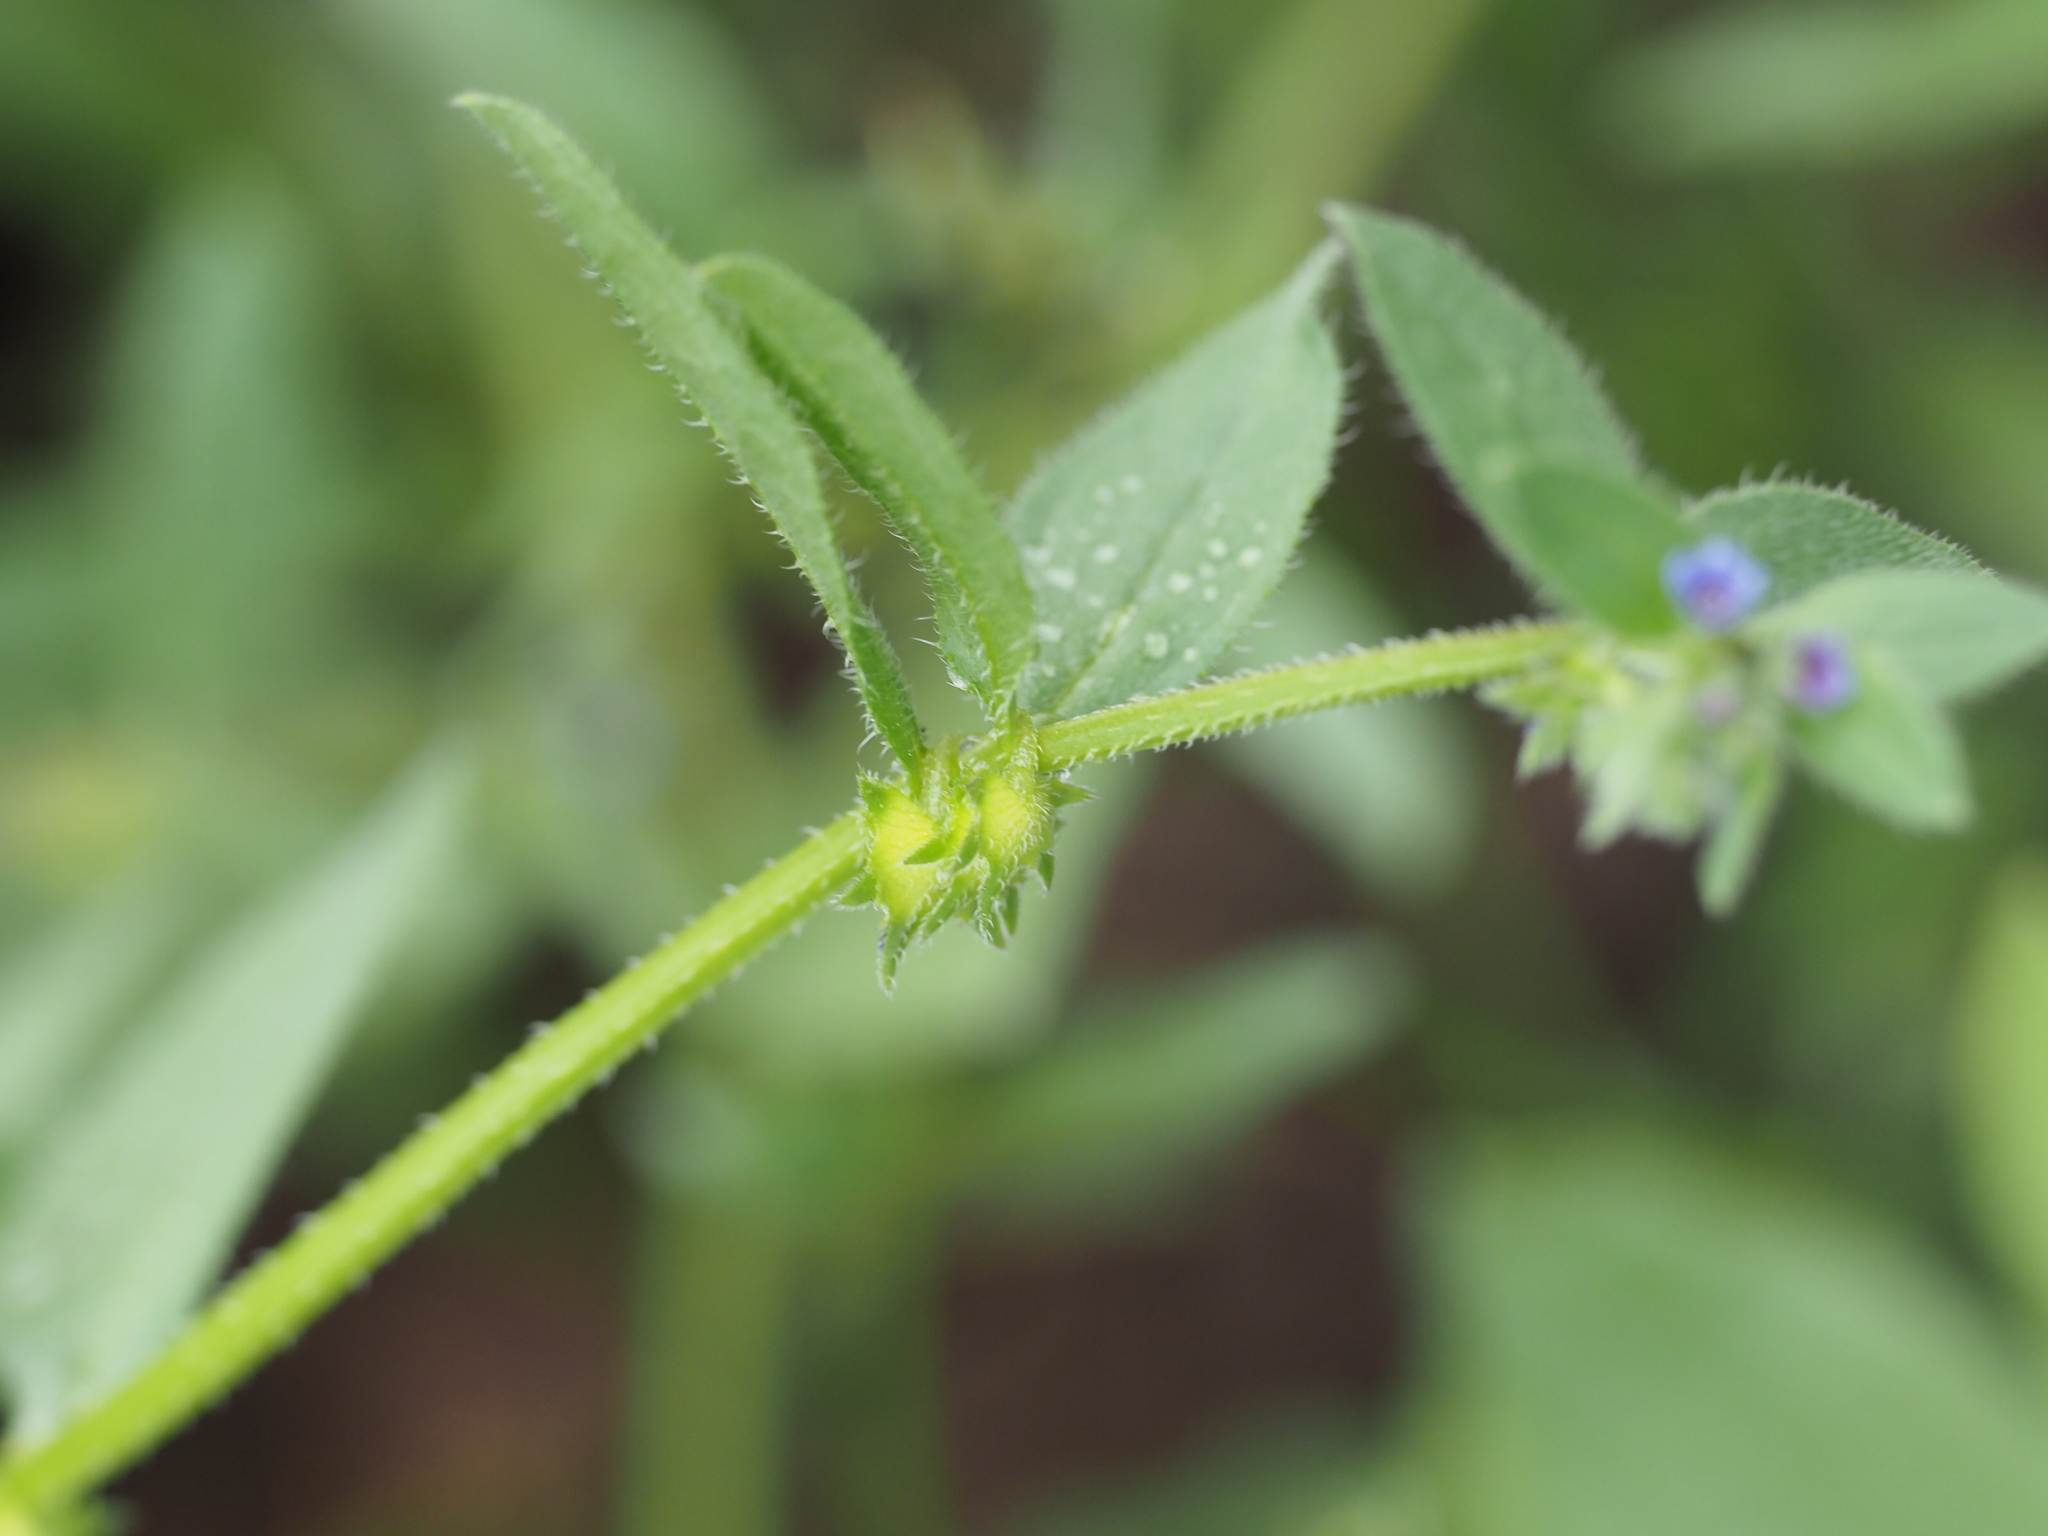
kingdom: Plantae
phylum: Tracheophyta
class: Magnoliopsida
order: Boraginales
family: Boraginaceae
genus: Asperugo
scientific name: Asperugo procumbens
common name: Madwort
